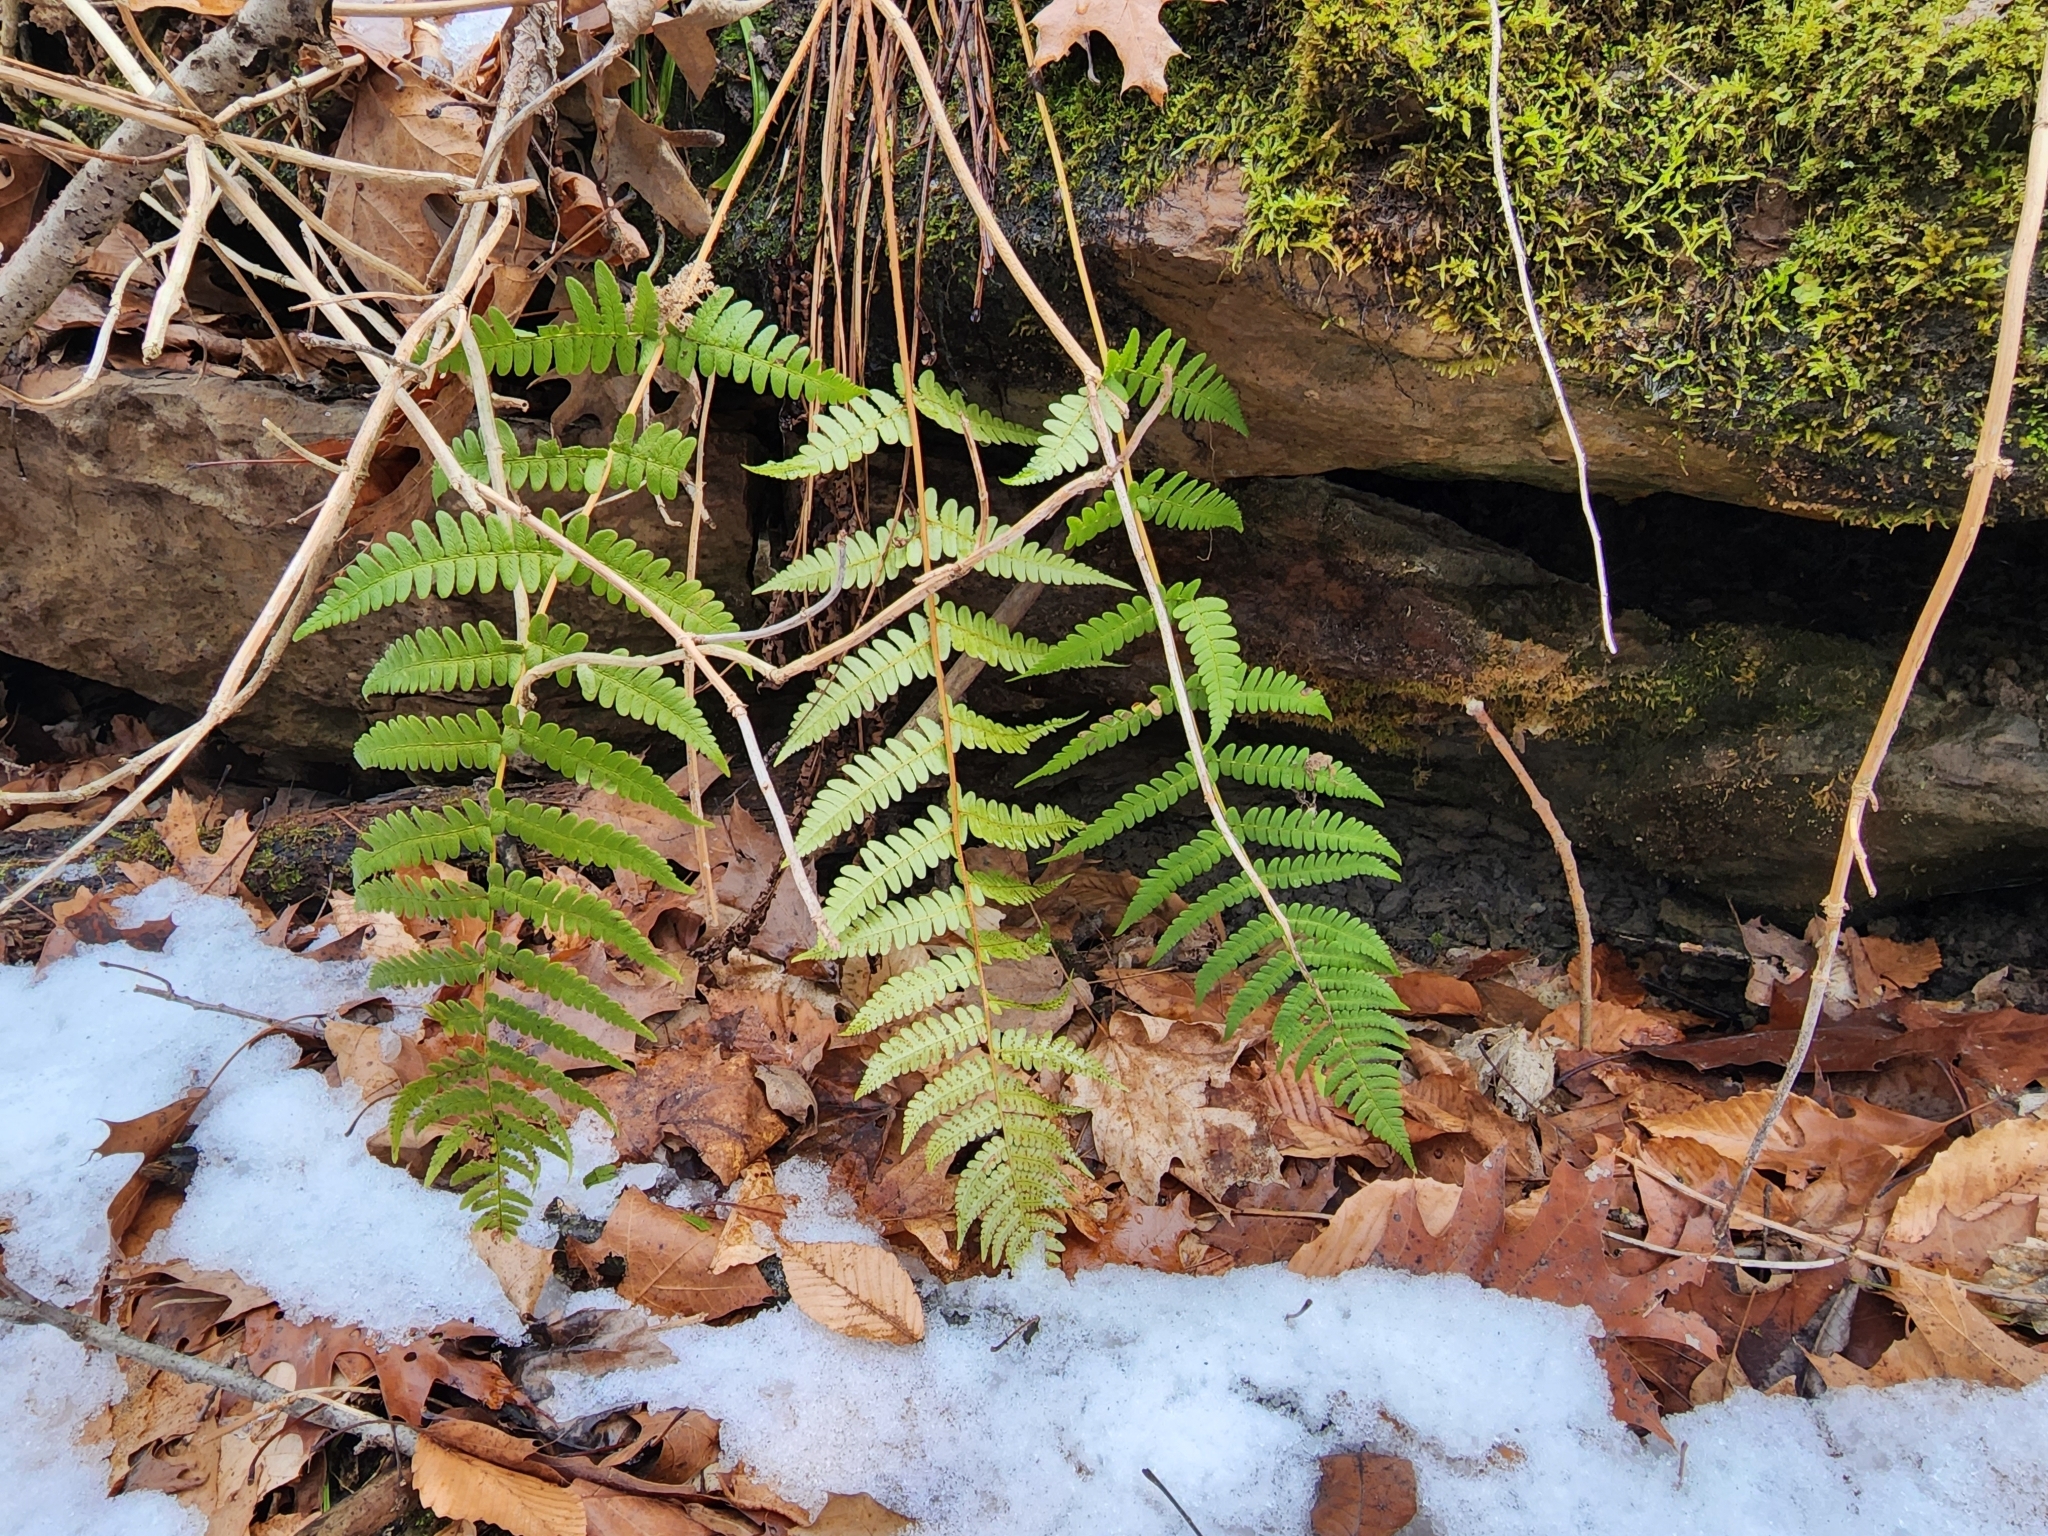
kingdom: Plantae
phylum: Tracheophyta
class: Polypodiopsida
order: Polypodiales
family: Dryopteridaceae
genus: Dryopteris
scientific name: Dryopteris marginalis
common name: Marginal wood fern
